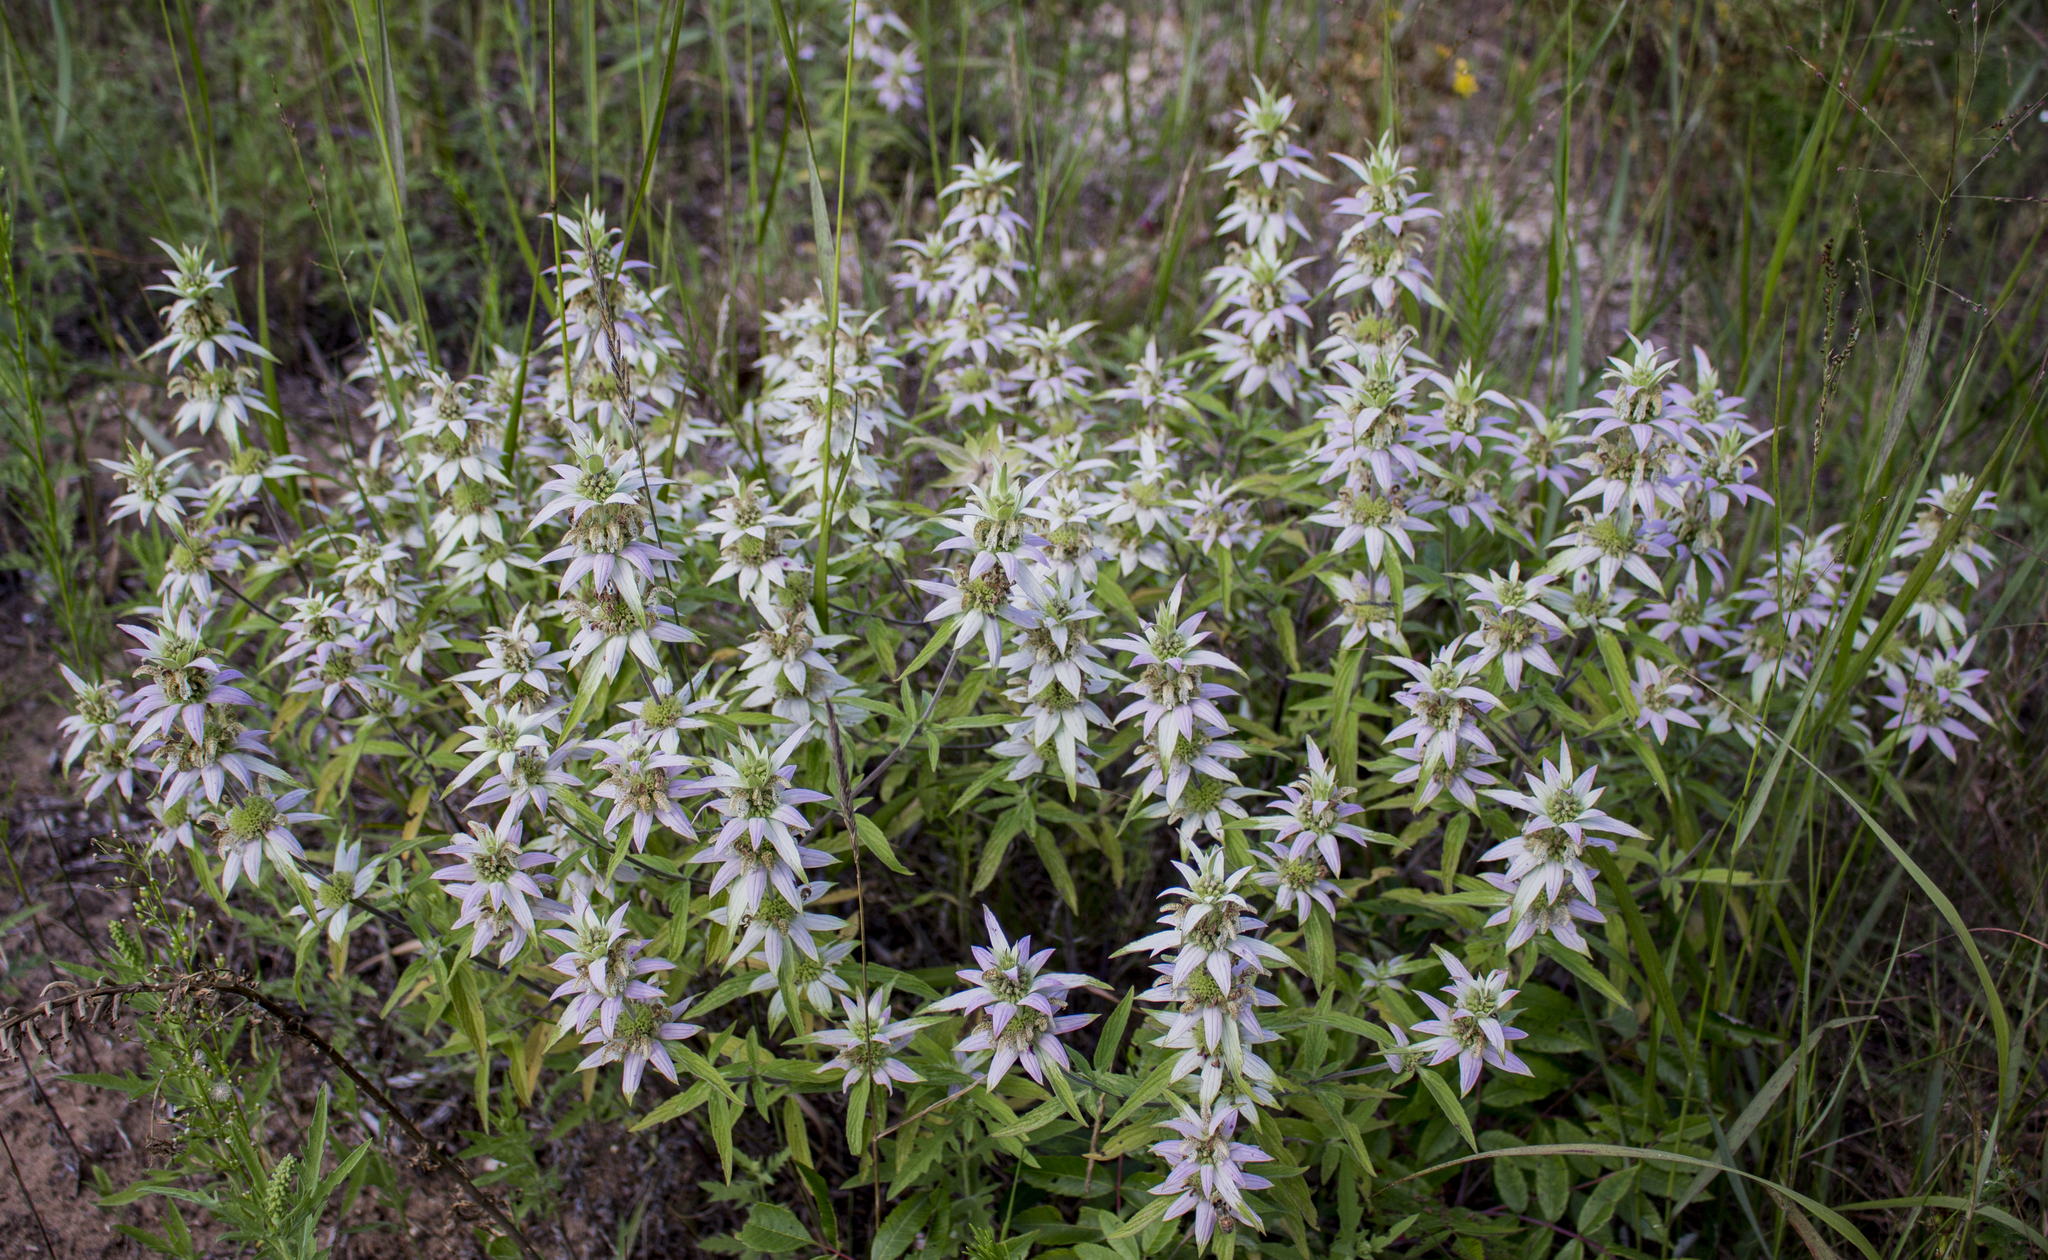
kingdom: Plantae
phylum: Tracheophyta
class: Magnoliopsida
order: Lamiales
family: Lamiaceae
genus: Monarda
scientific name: Monarda punctata
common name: Dotted monarda
